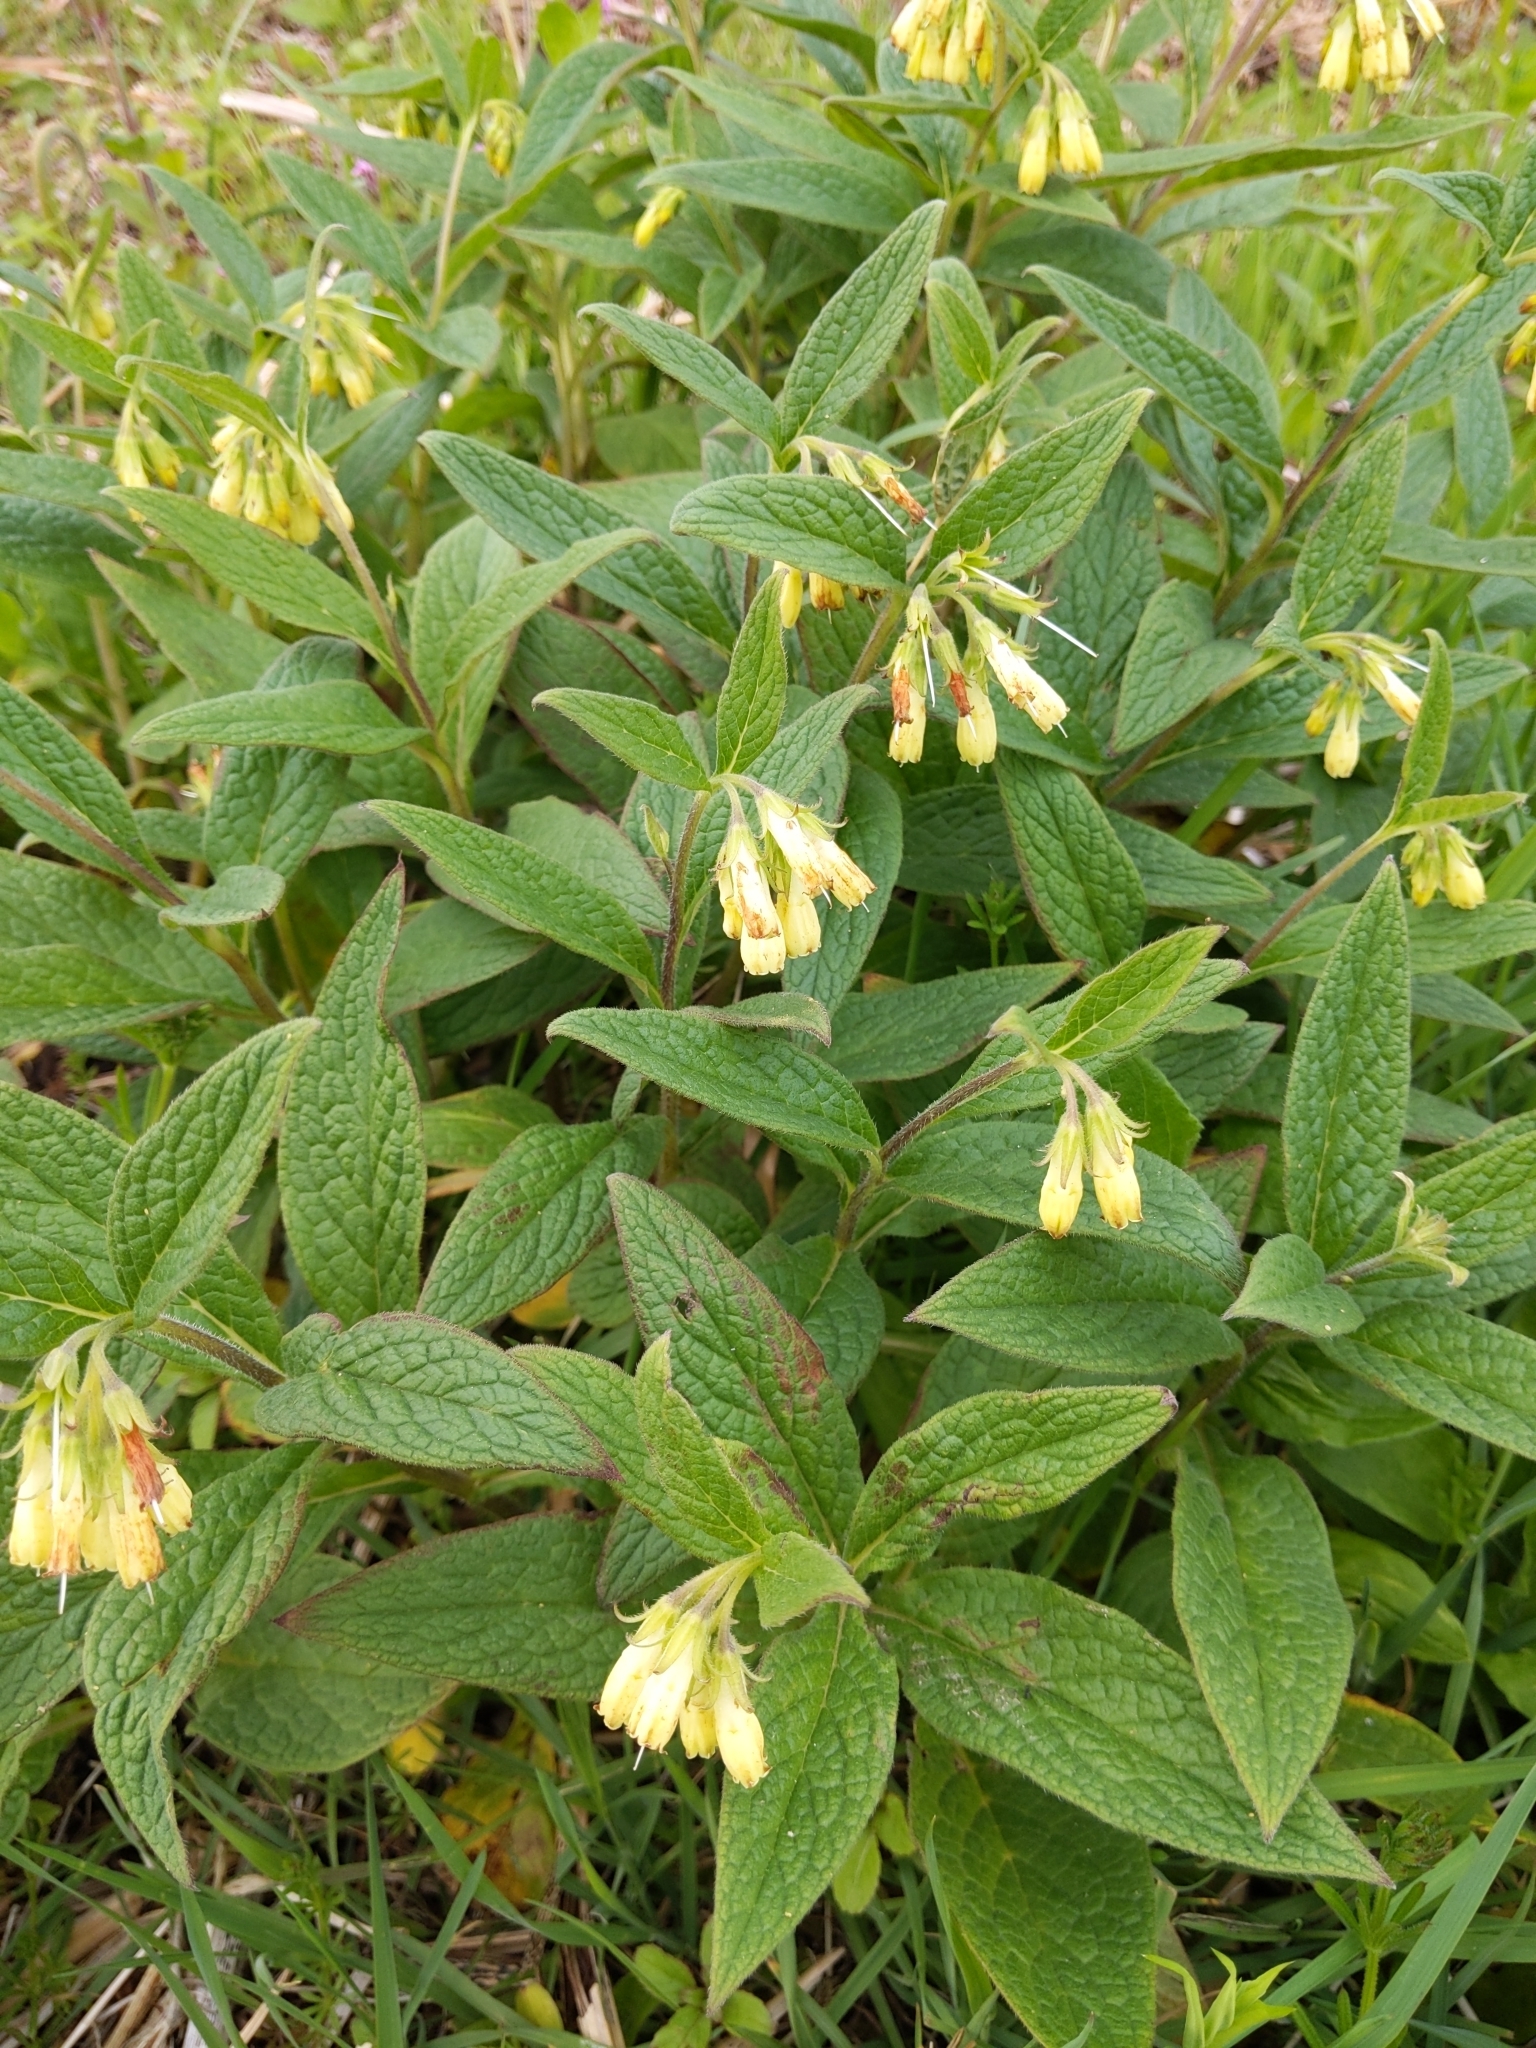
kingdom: Plantae
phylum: Tracheophyta
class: Magnoliopsida
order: Boraginales
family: Boraginaceae
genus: Symphytum
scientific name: Symphytum tuberosum
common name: Tuberous comfrey
